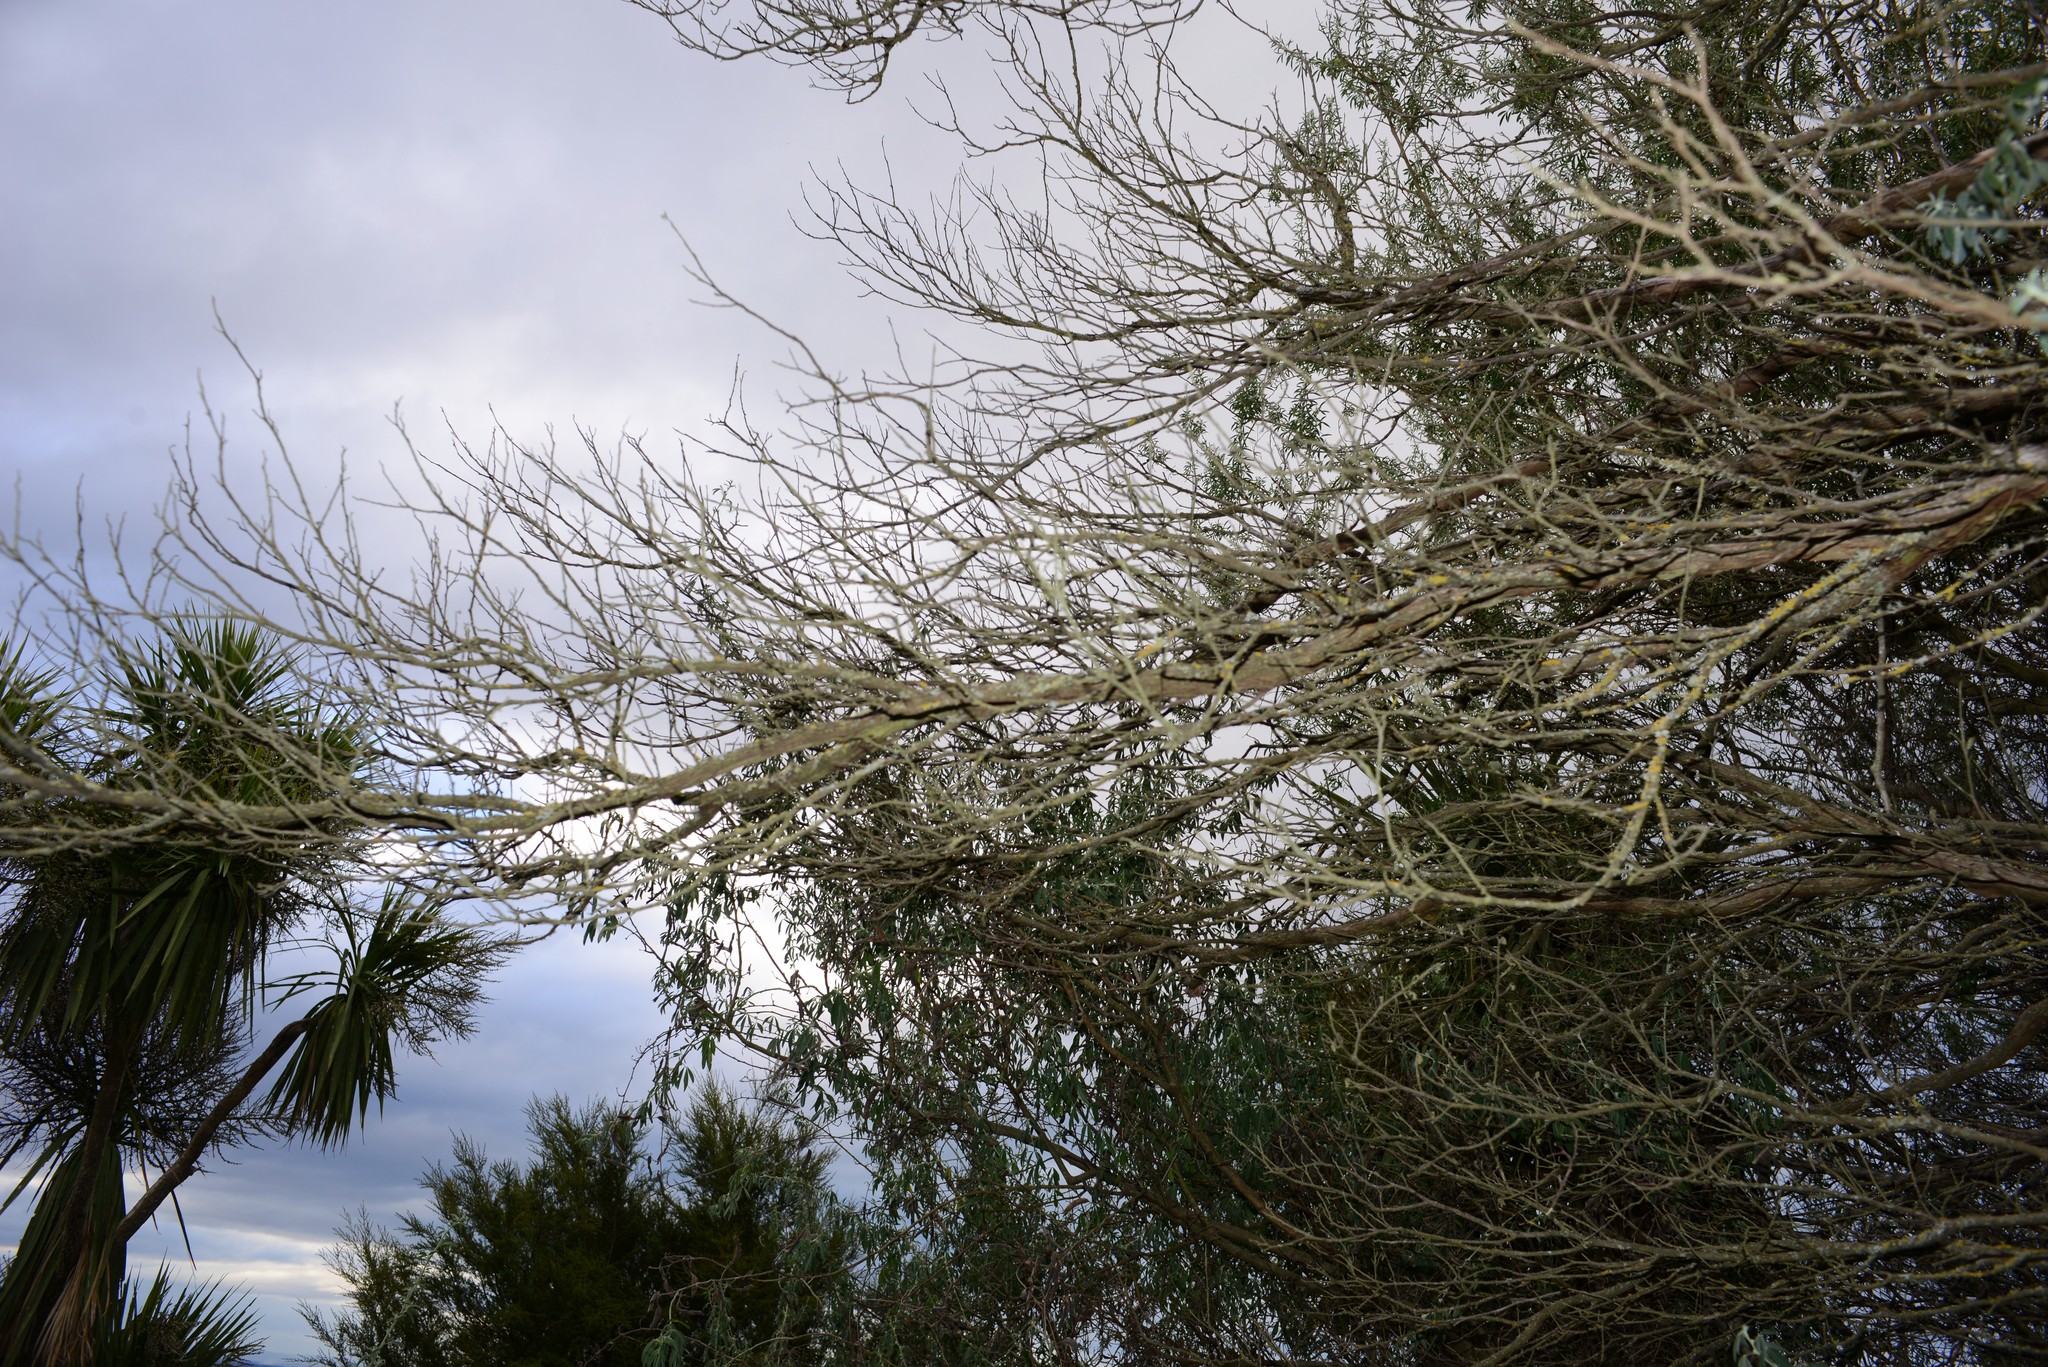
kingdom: Plantae
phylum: Tracheophyta
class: Magnoliopsida
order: Sapindales
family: Sapindaceae
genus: Dodonaea
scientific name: Dodonaea viscosa
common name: Hopbush
